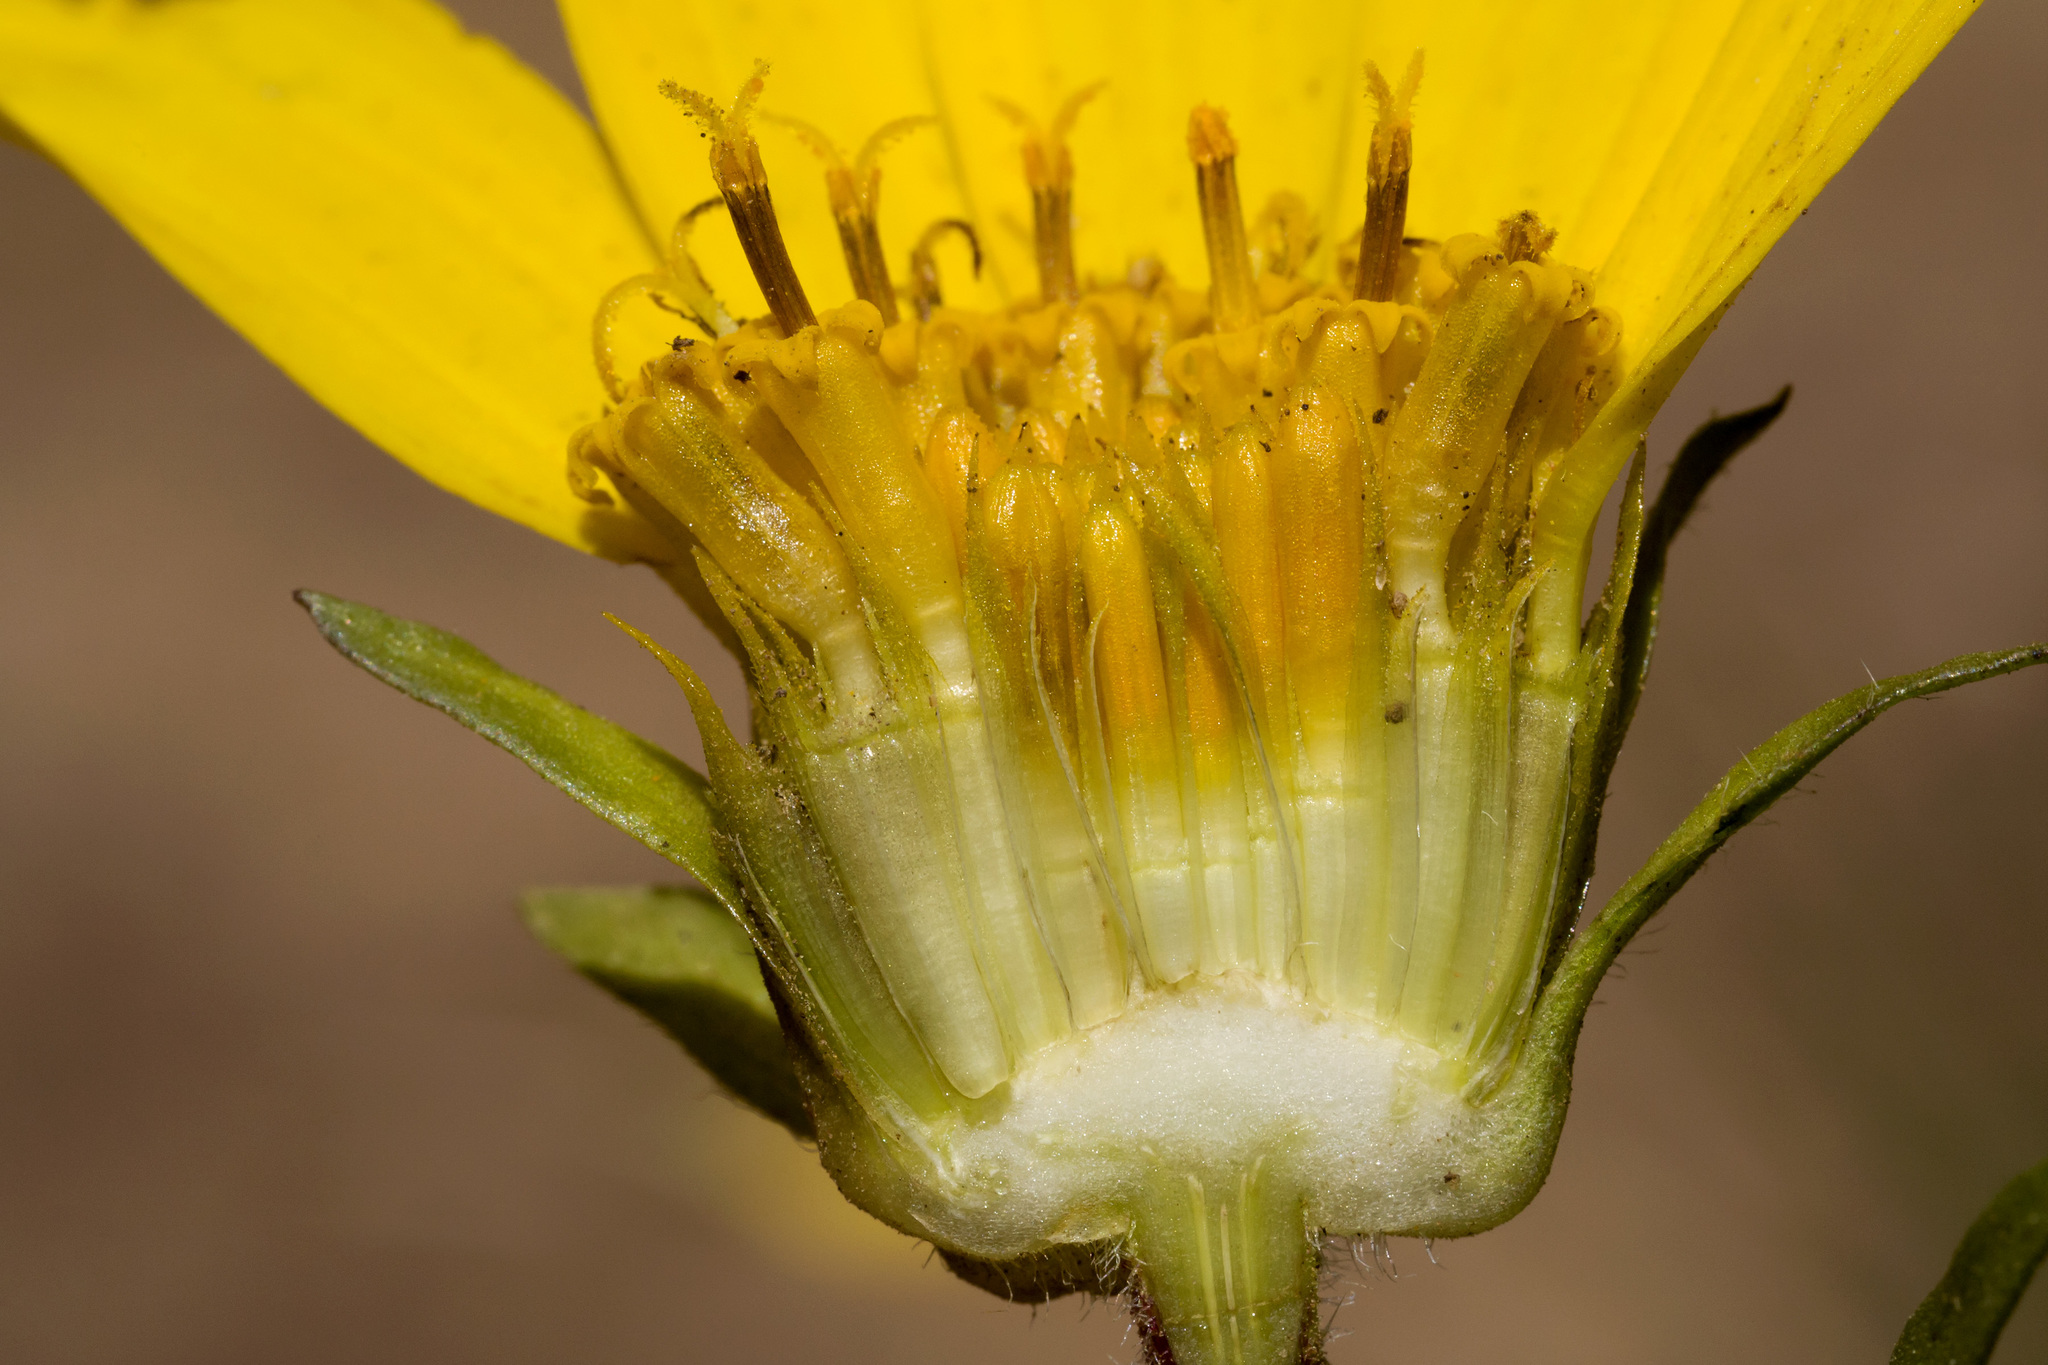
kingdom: Plantae
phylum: Tracheophyta
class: Magnoliopsida
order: Asterales
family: Asteraceae
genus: Wyethia
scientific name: Wyethia arizonica
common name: Arizona mule's-ears
